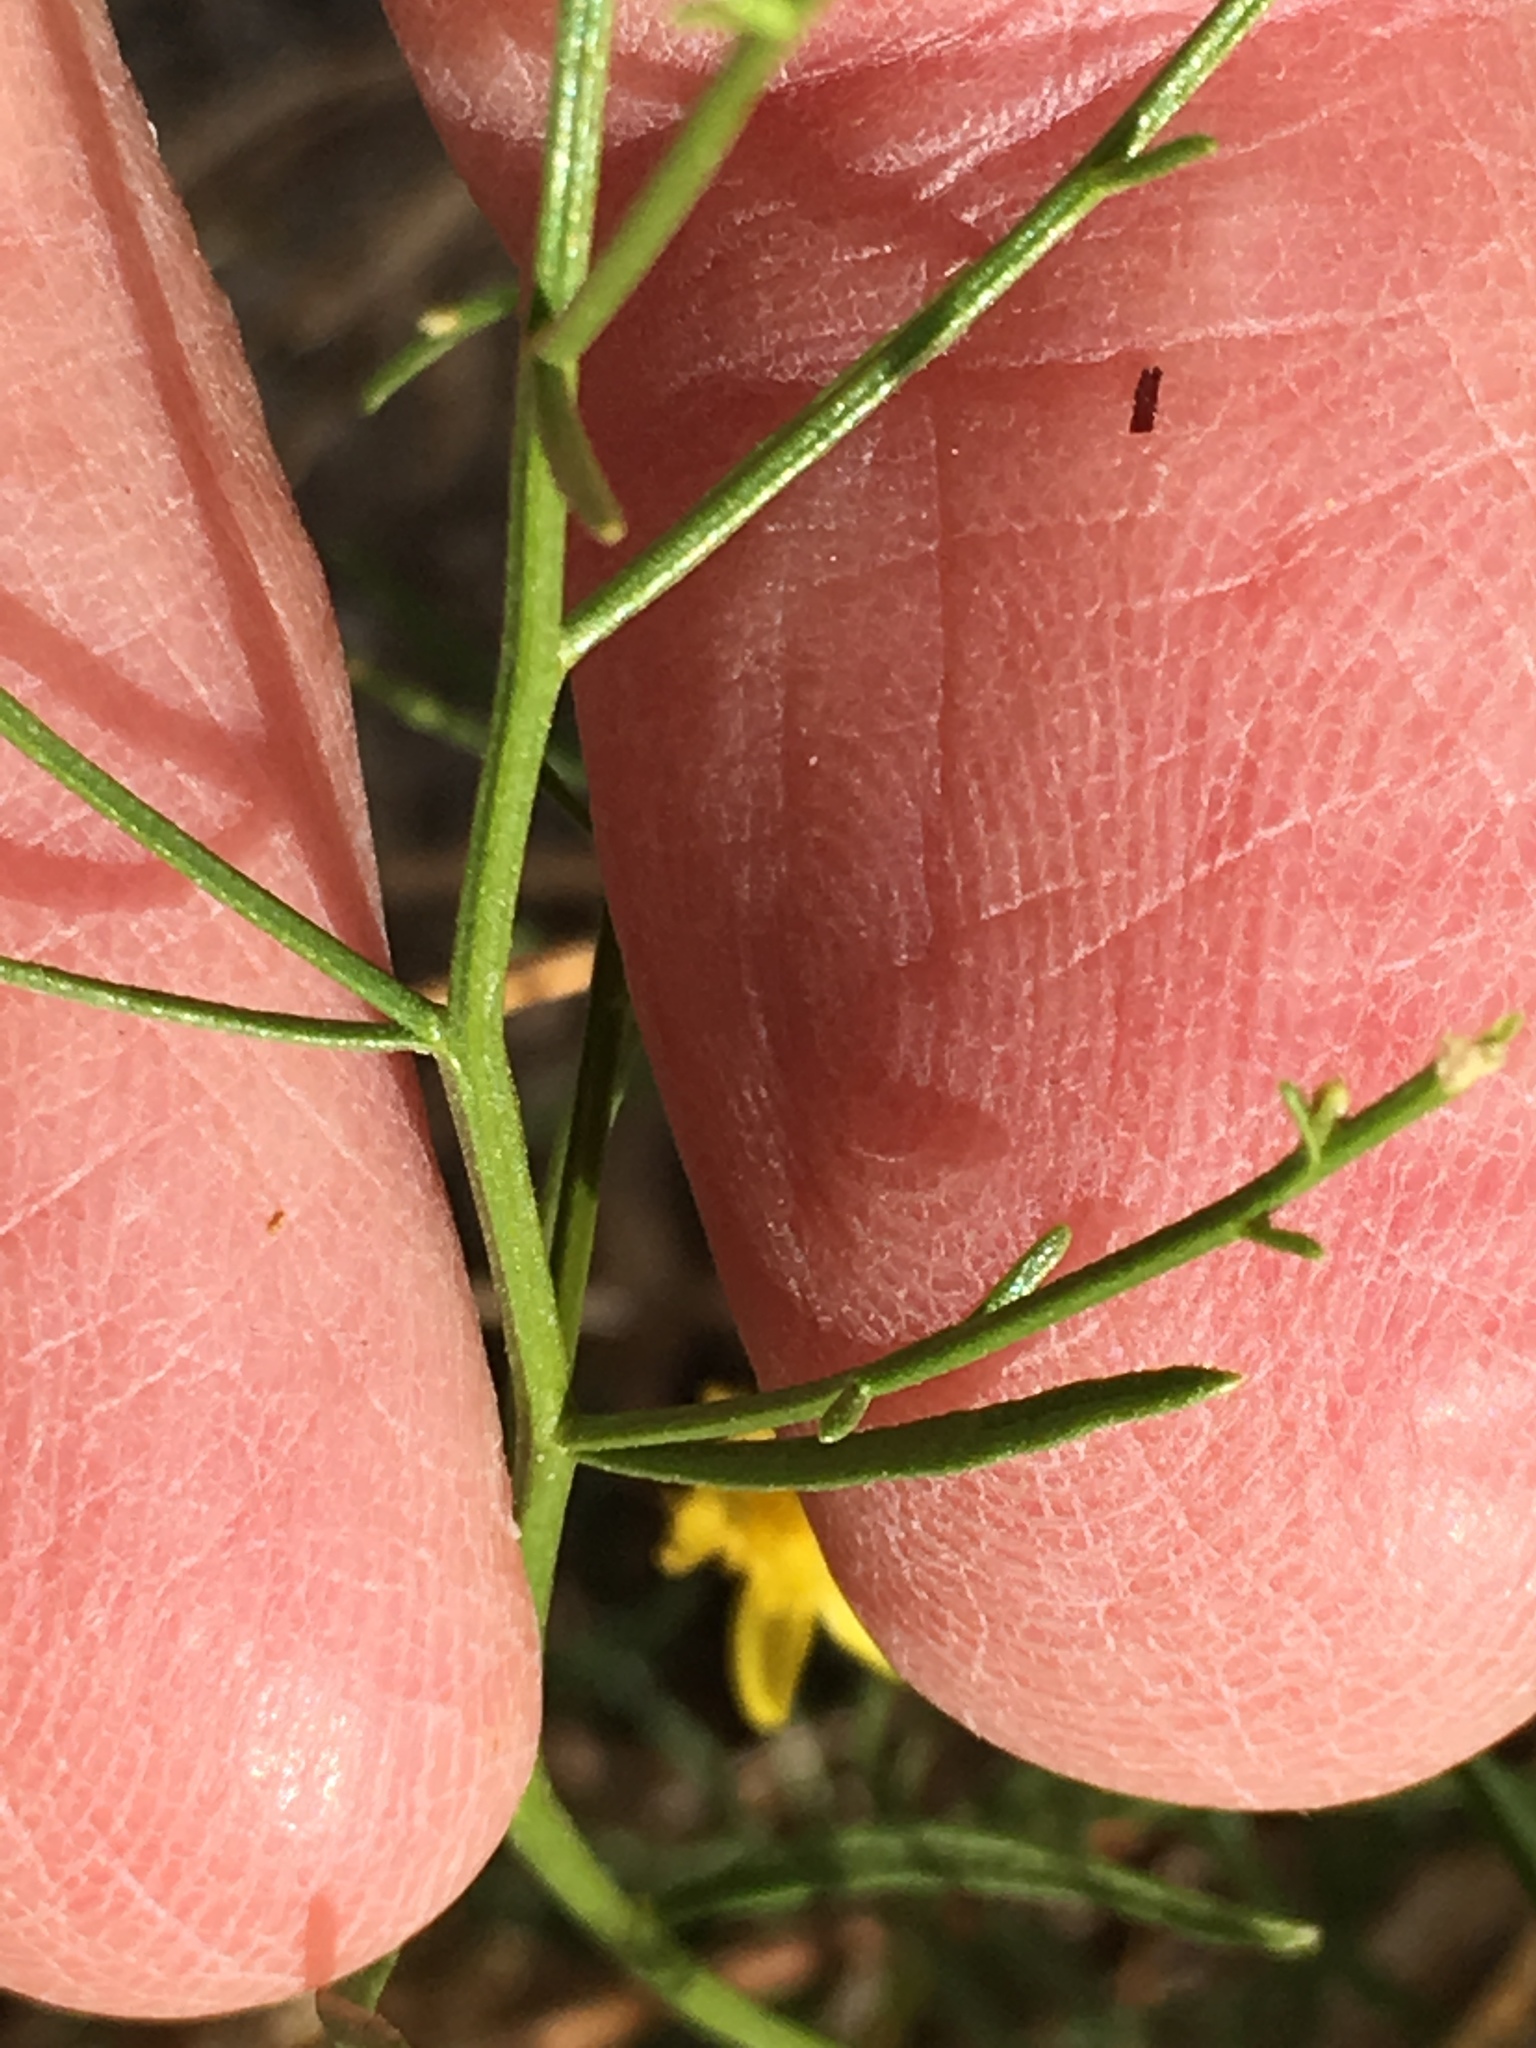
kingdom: Plantae
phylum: Tracheophyta
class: Magnoliopsida
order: Asterales
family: Asteraceae
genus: Gutierrezia
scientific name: Gutierrezia sarothrae
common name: Broom snakeweed
